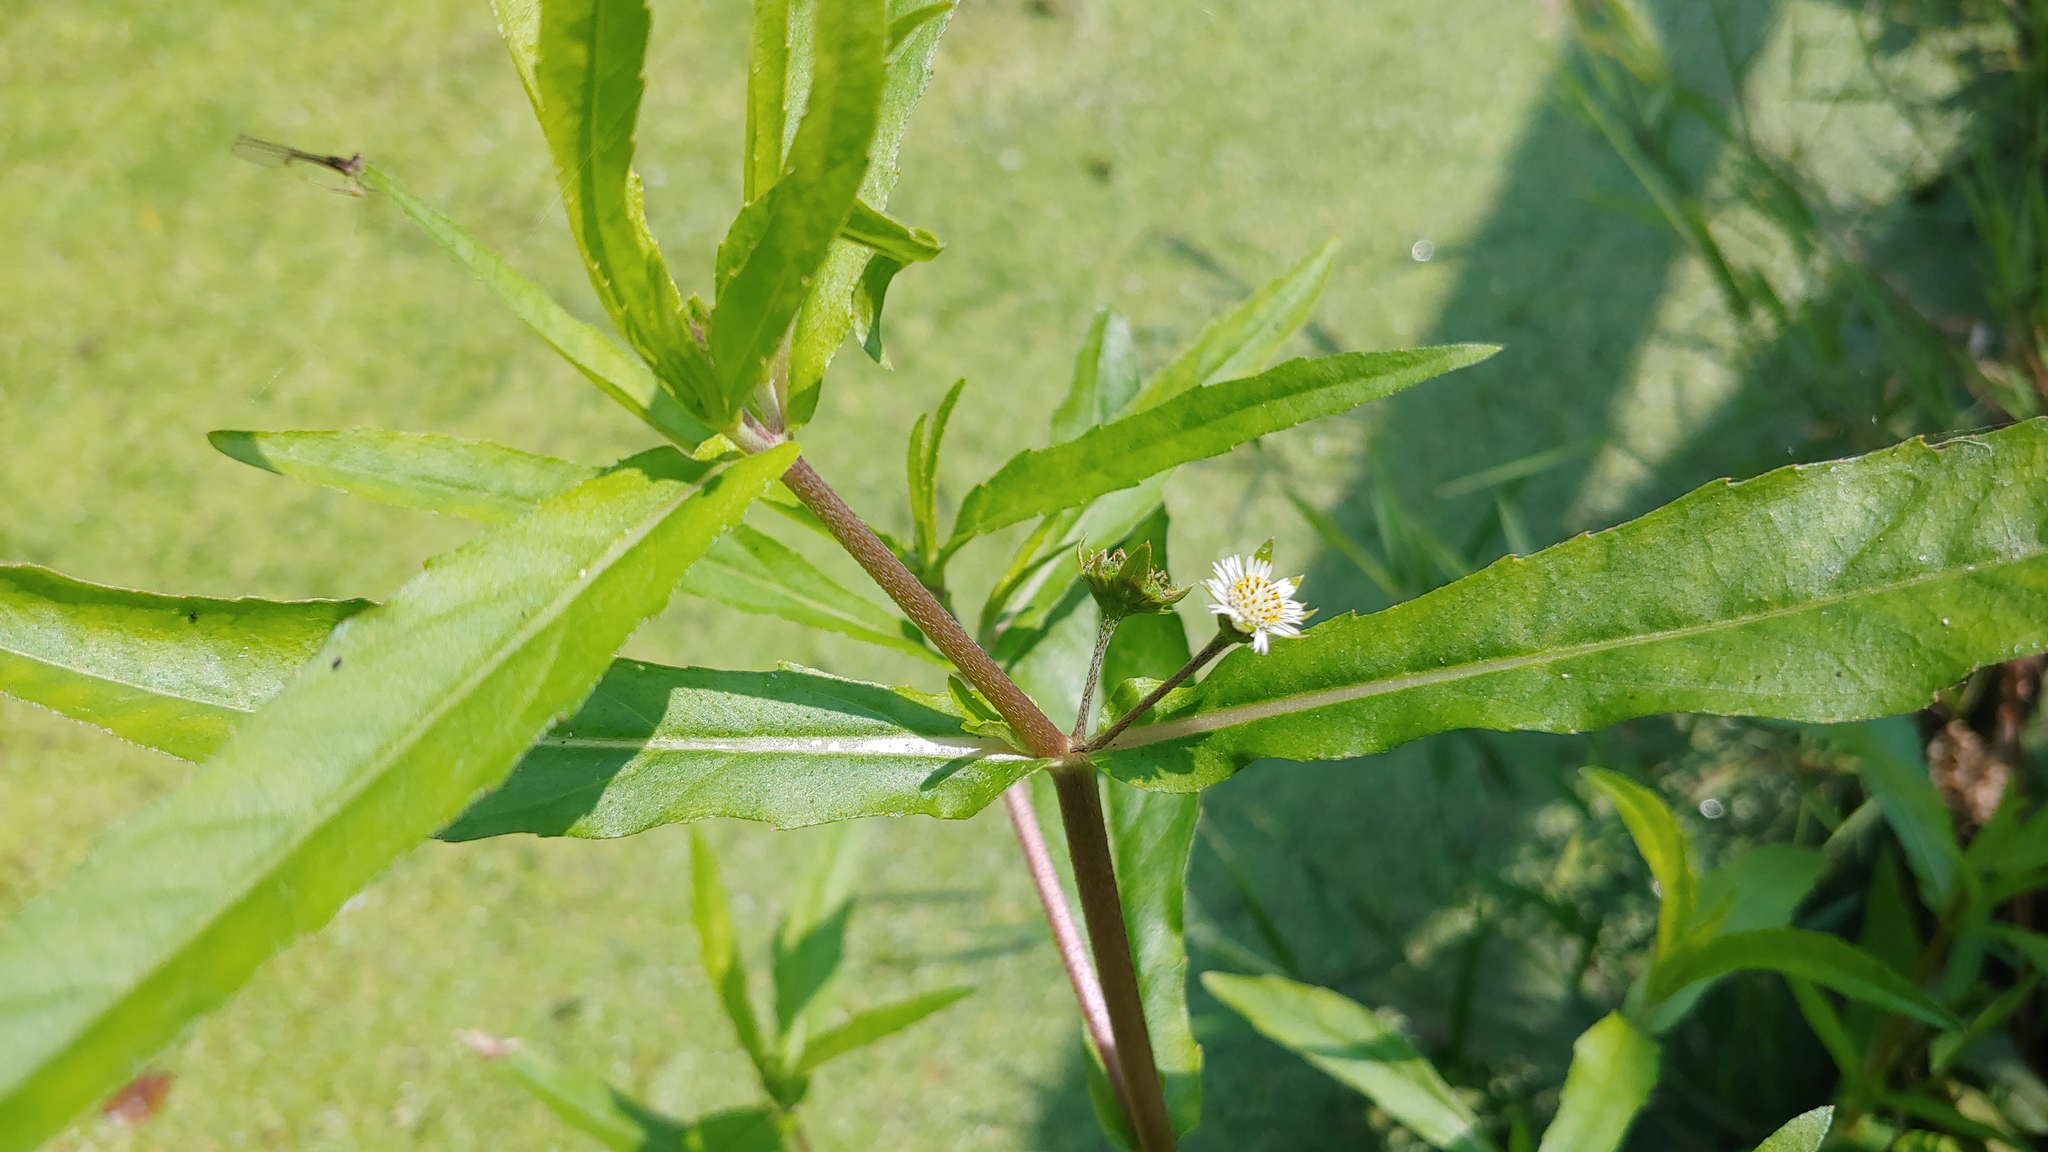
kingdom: Plantae
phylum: Tracheophyta
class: Magnoliopsida
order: Asterales
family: Asteraceae
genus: Eclipta
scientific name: Eclipta prostrata
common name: False daisy
